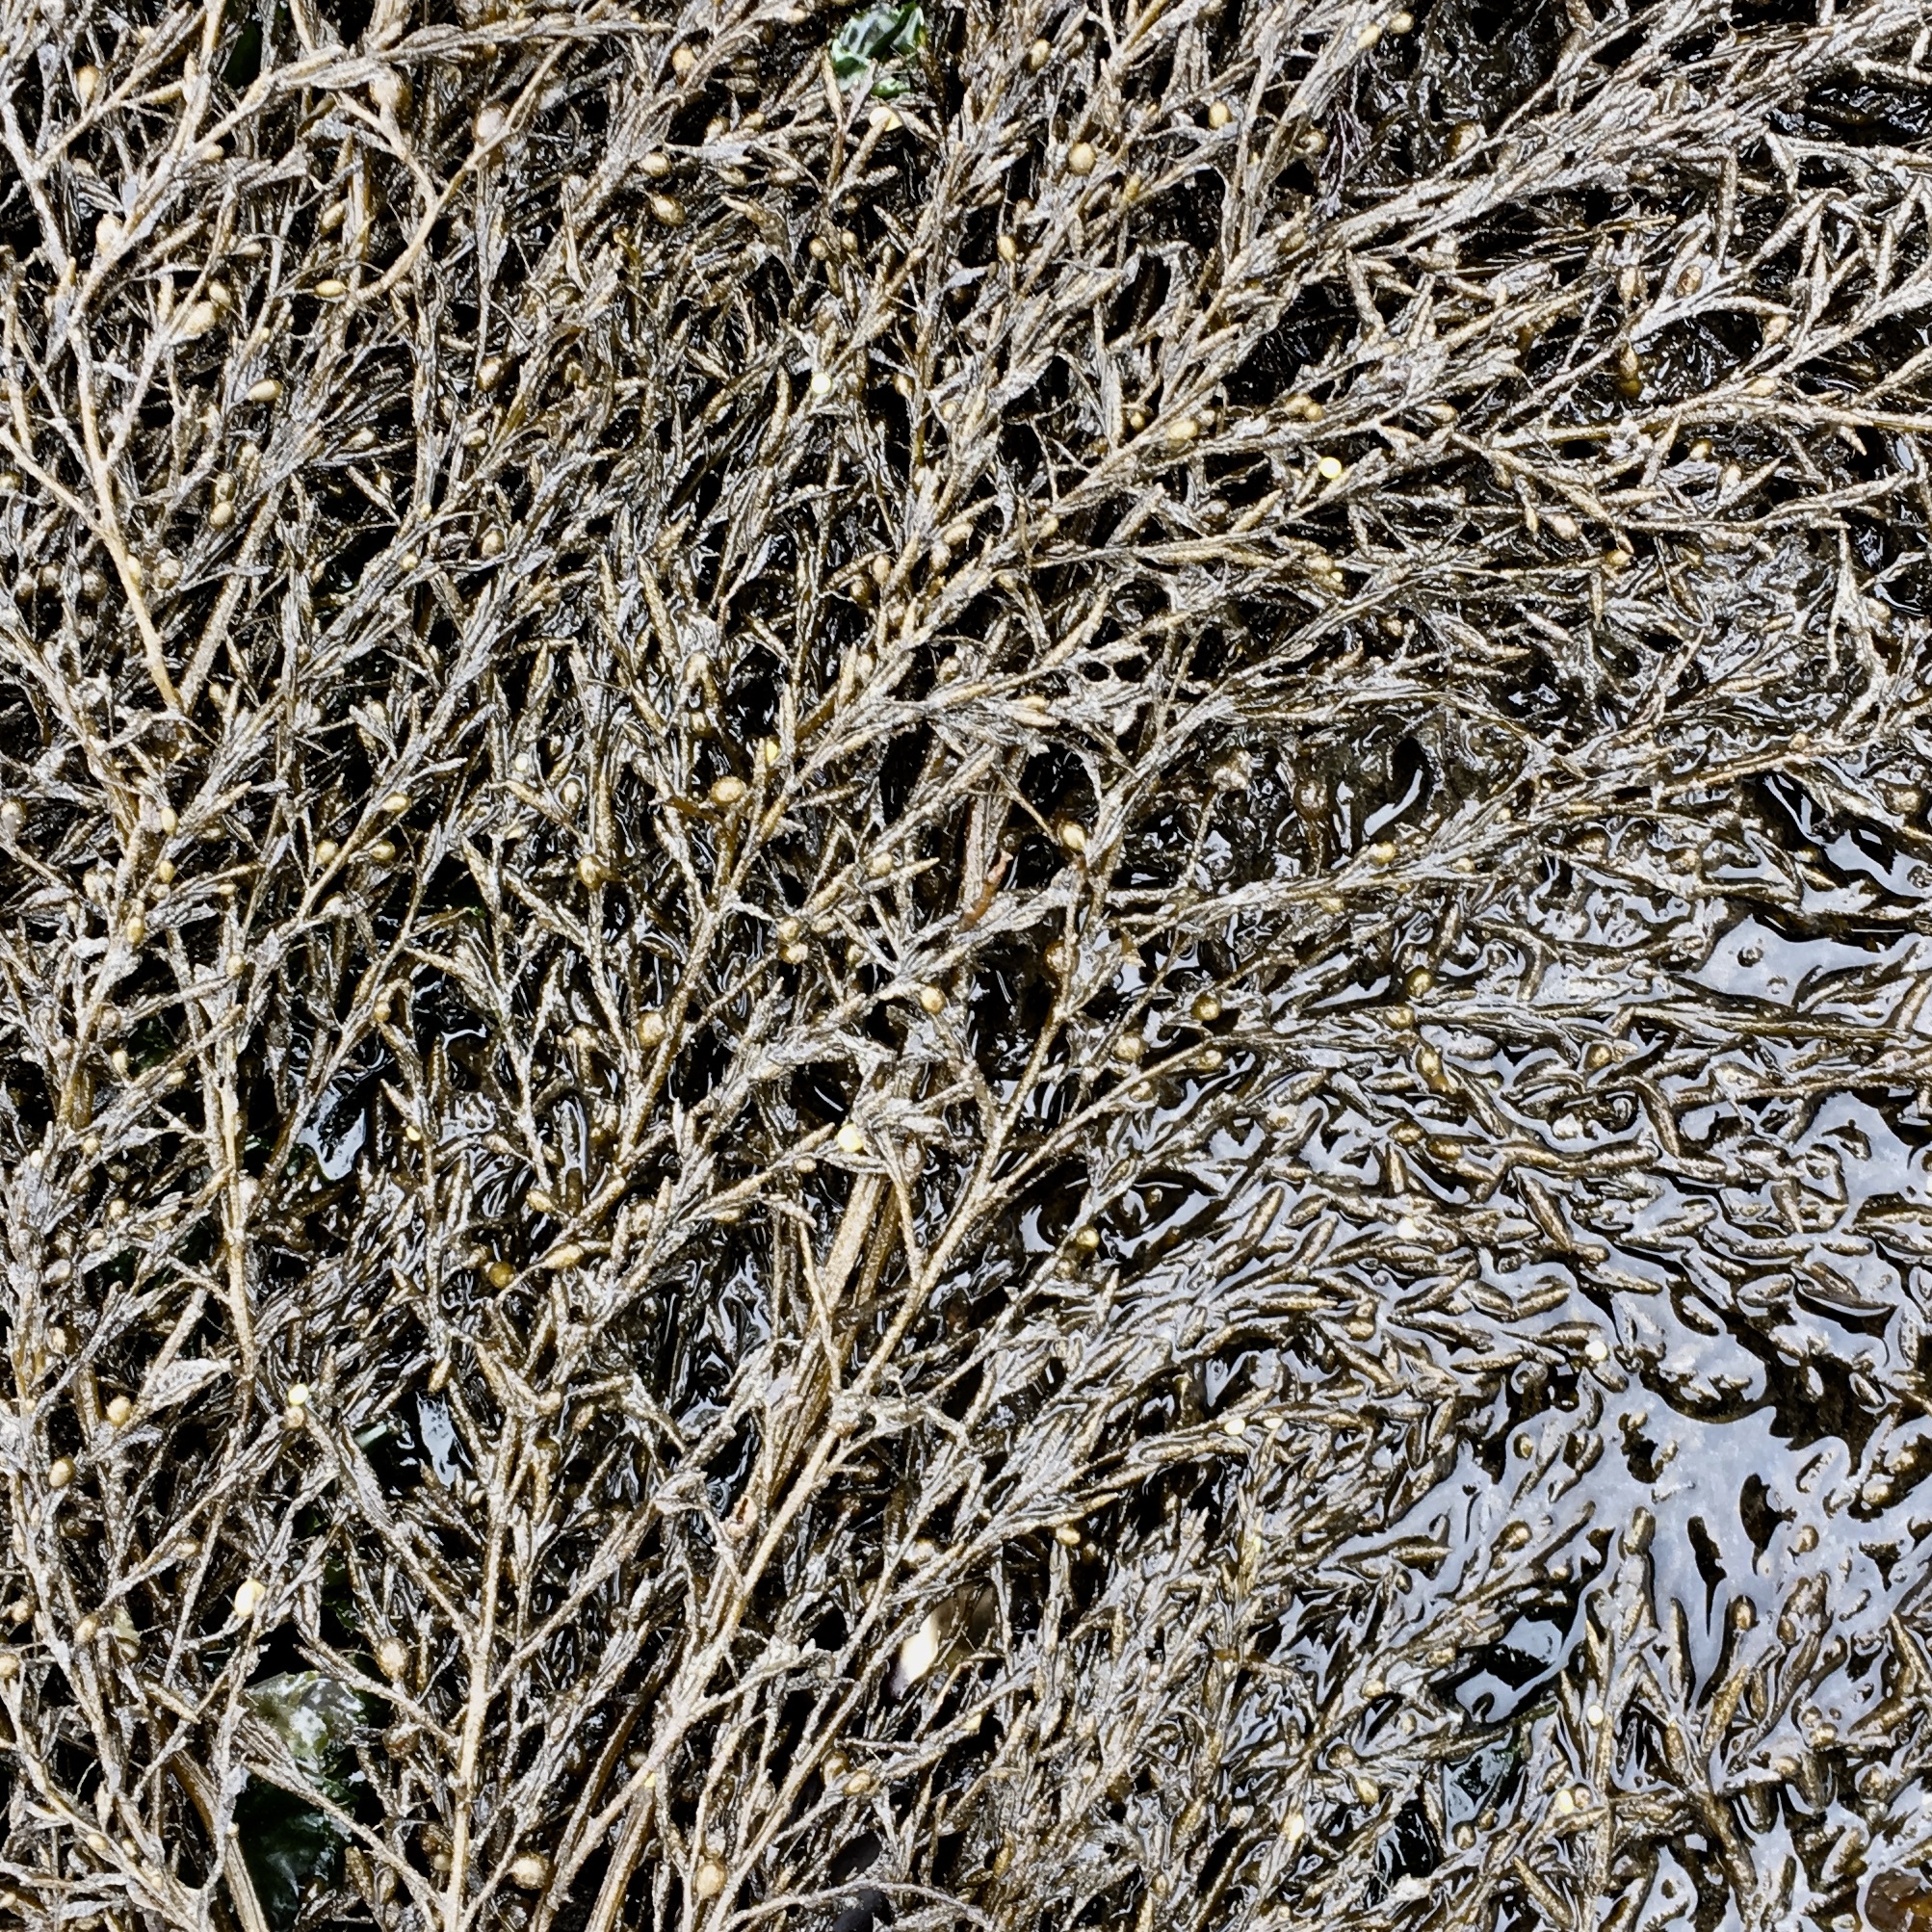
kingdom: Chromista
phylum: Ochrophyta
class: Phaeophyceae
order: Fucales
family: Sargassaceae
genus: Sargassum
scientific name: Sargassum muticum
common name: Japweed
